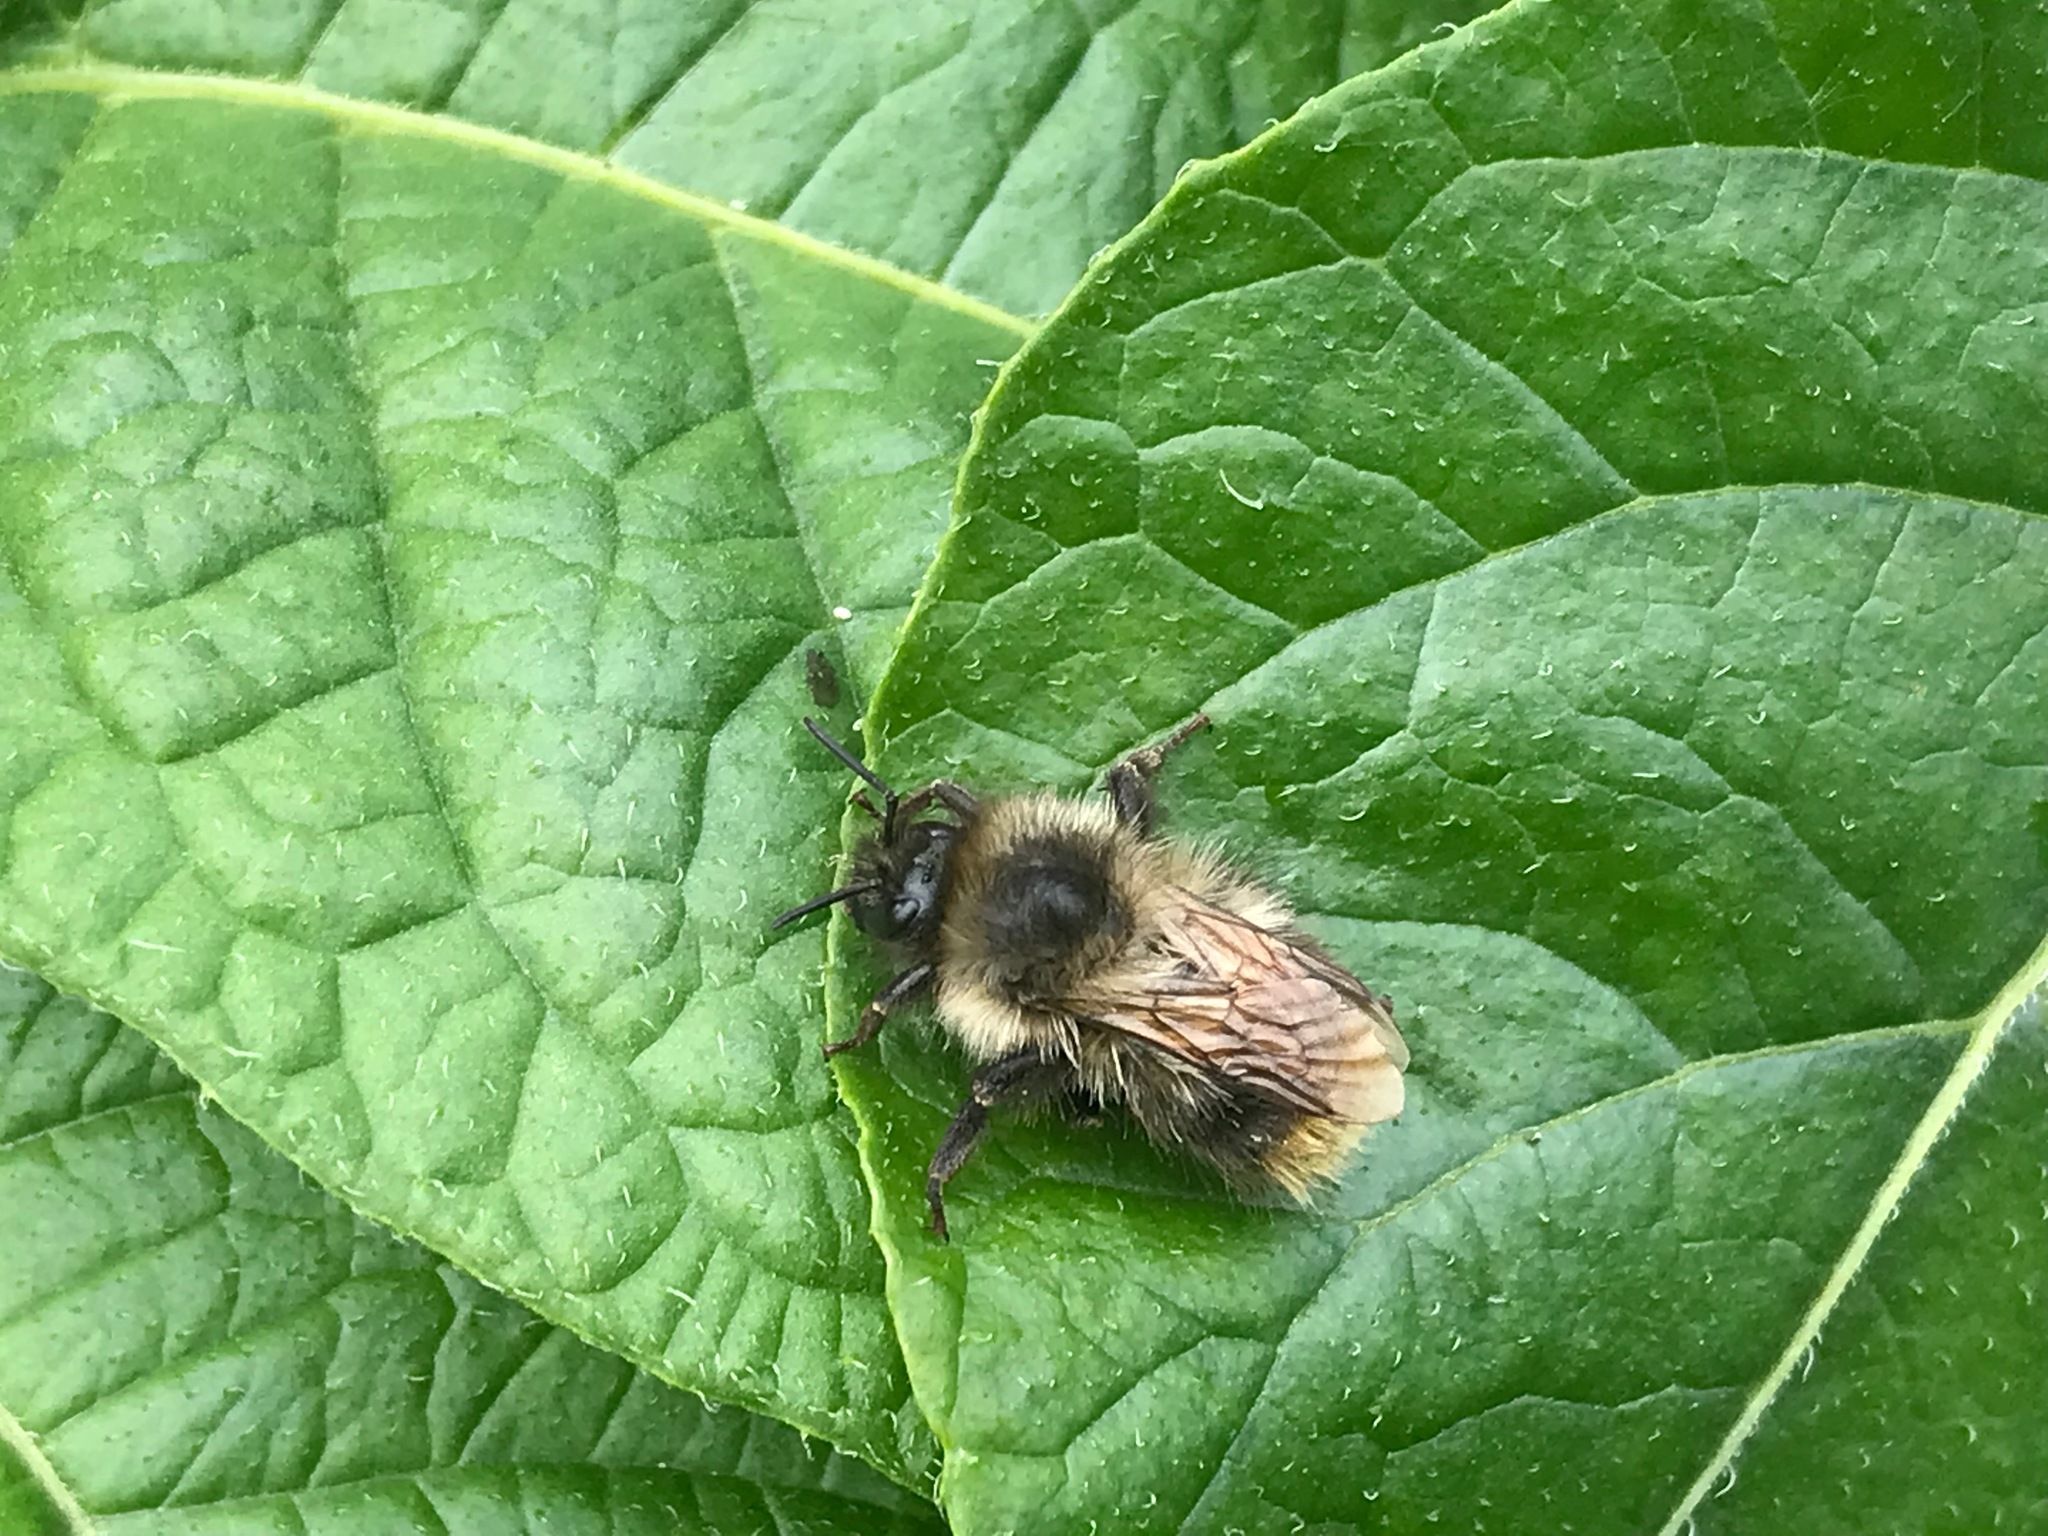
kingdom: Animalia
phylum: Arthropoda
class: Insecta
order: Hymenoptera
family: Apidae
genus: Bombus
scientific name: Bombus mixtus
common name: Fuzzy-horned bumble bee
